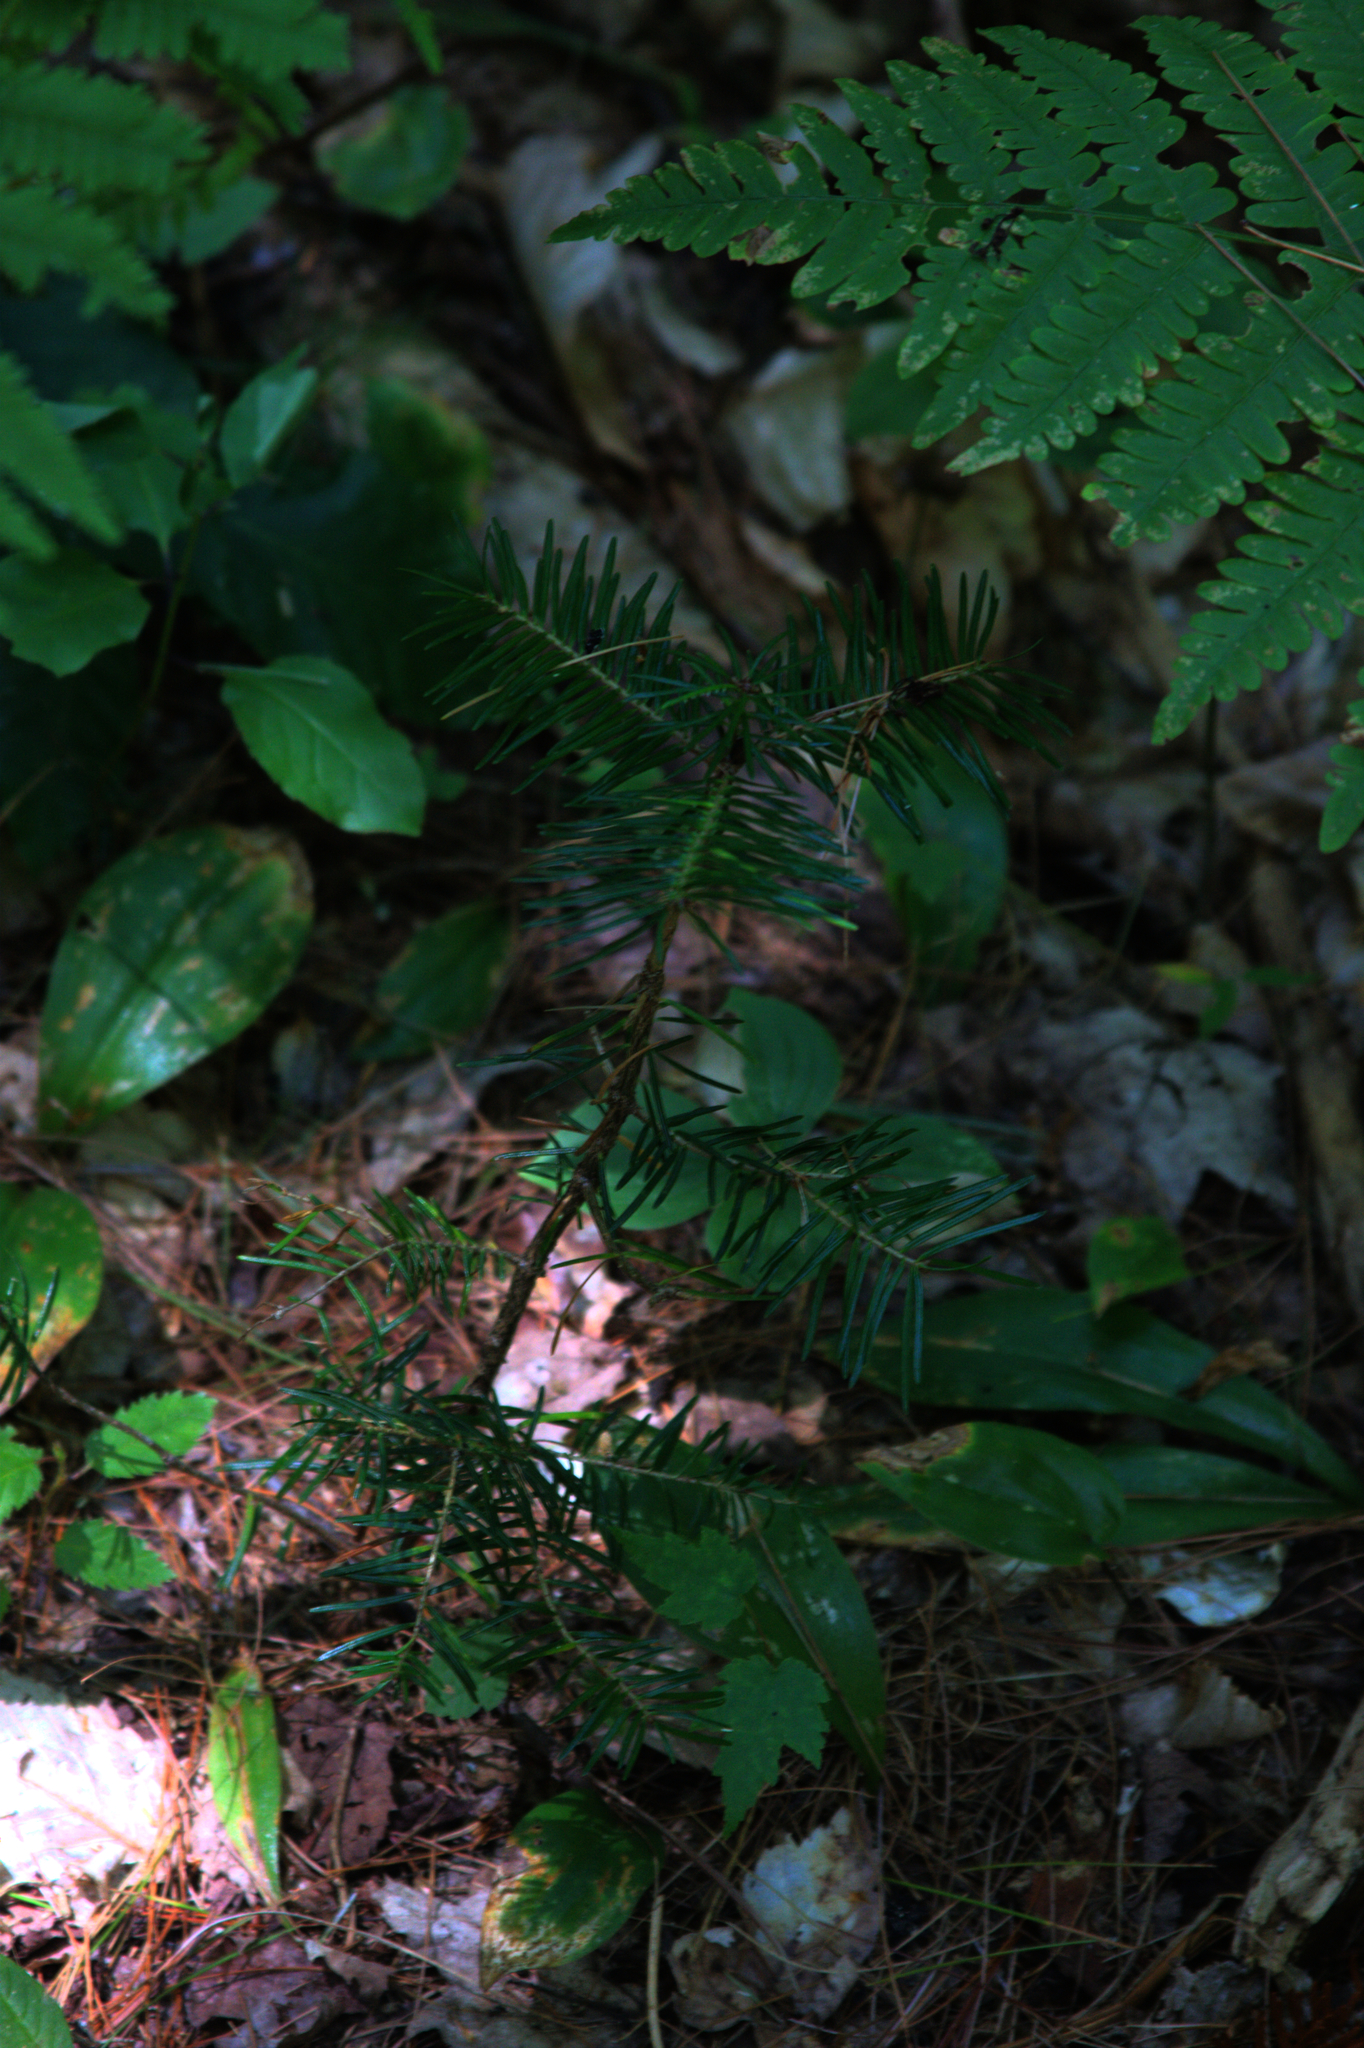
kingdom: Plantae
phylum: Tracheophyta
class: Liliopsida
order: Asparagales
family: Asparagaceae
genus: Maianthemum
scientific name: Maianthemum canadense
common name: False lily-of-the-valley
